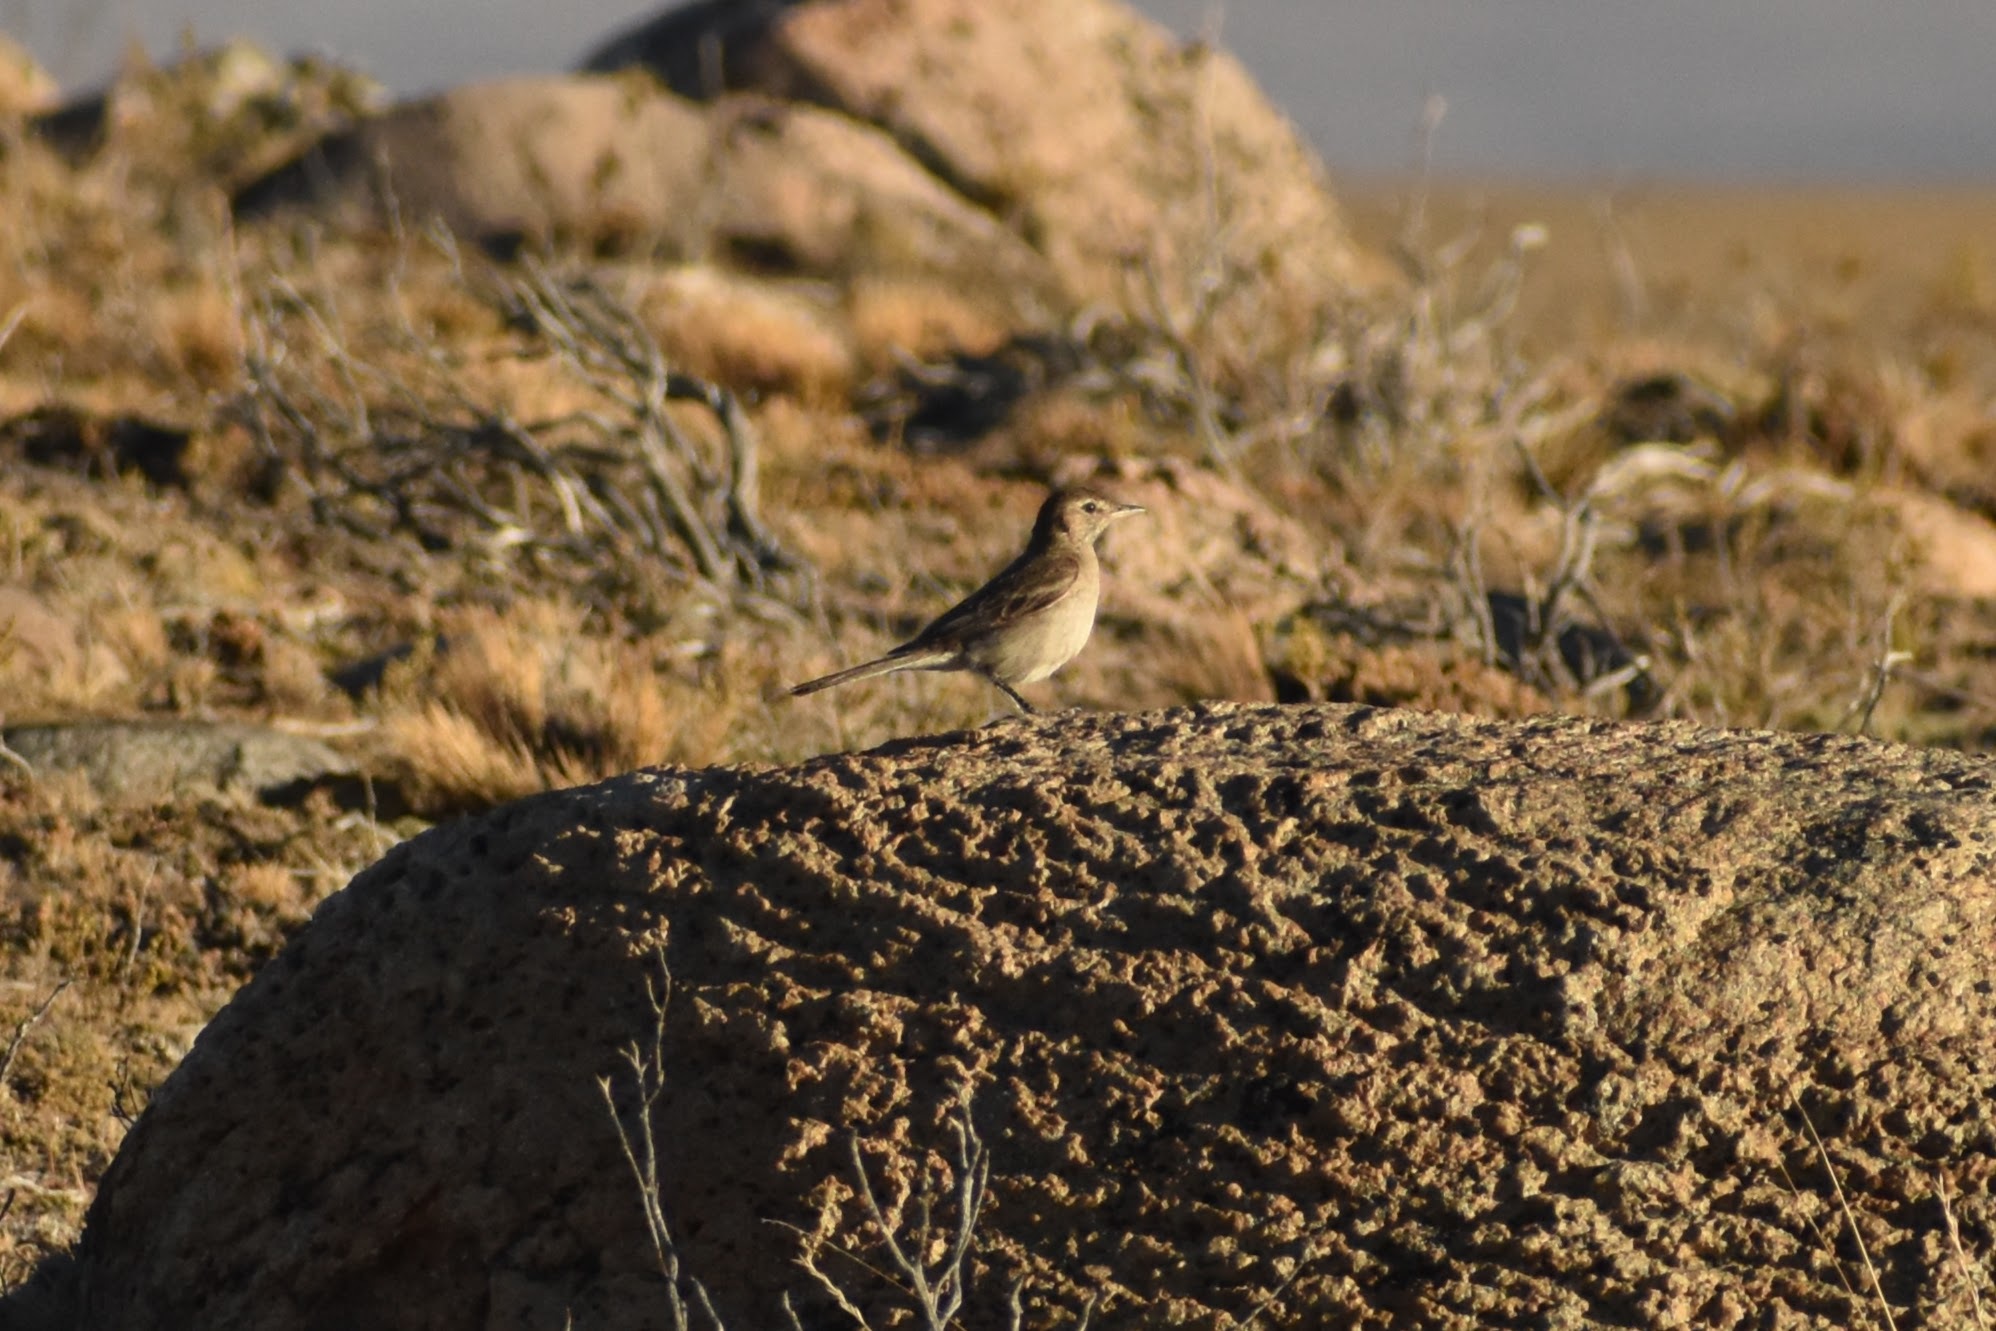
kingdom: Animalia
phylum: Chordata
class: Aves
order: Passeriformes
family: Tyrannidae
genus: Agriornis
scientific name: Agriornis micropterus
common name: Grey-bellied shrike-tyrant
